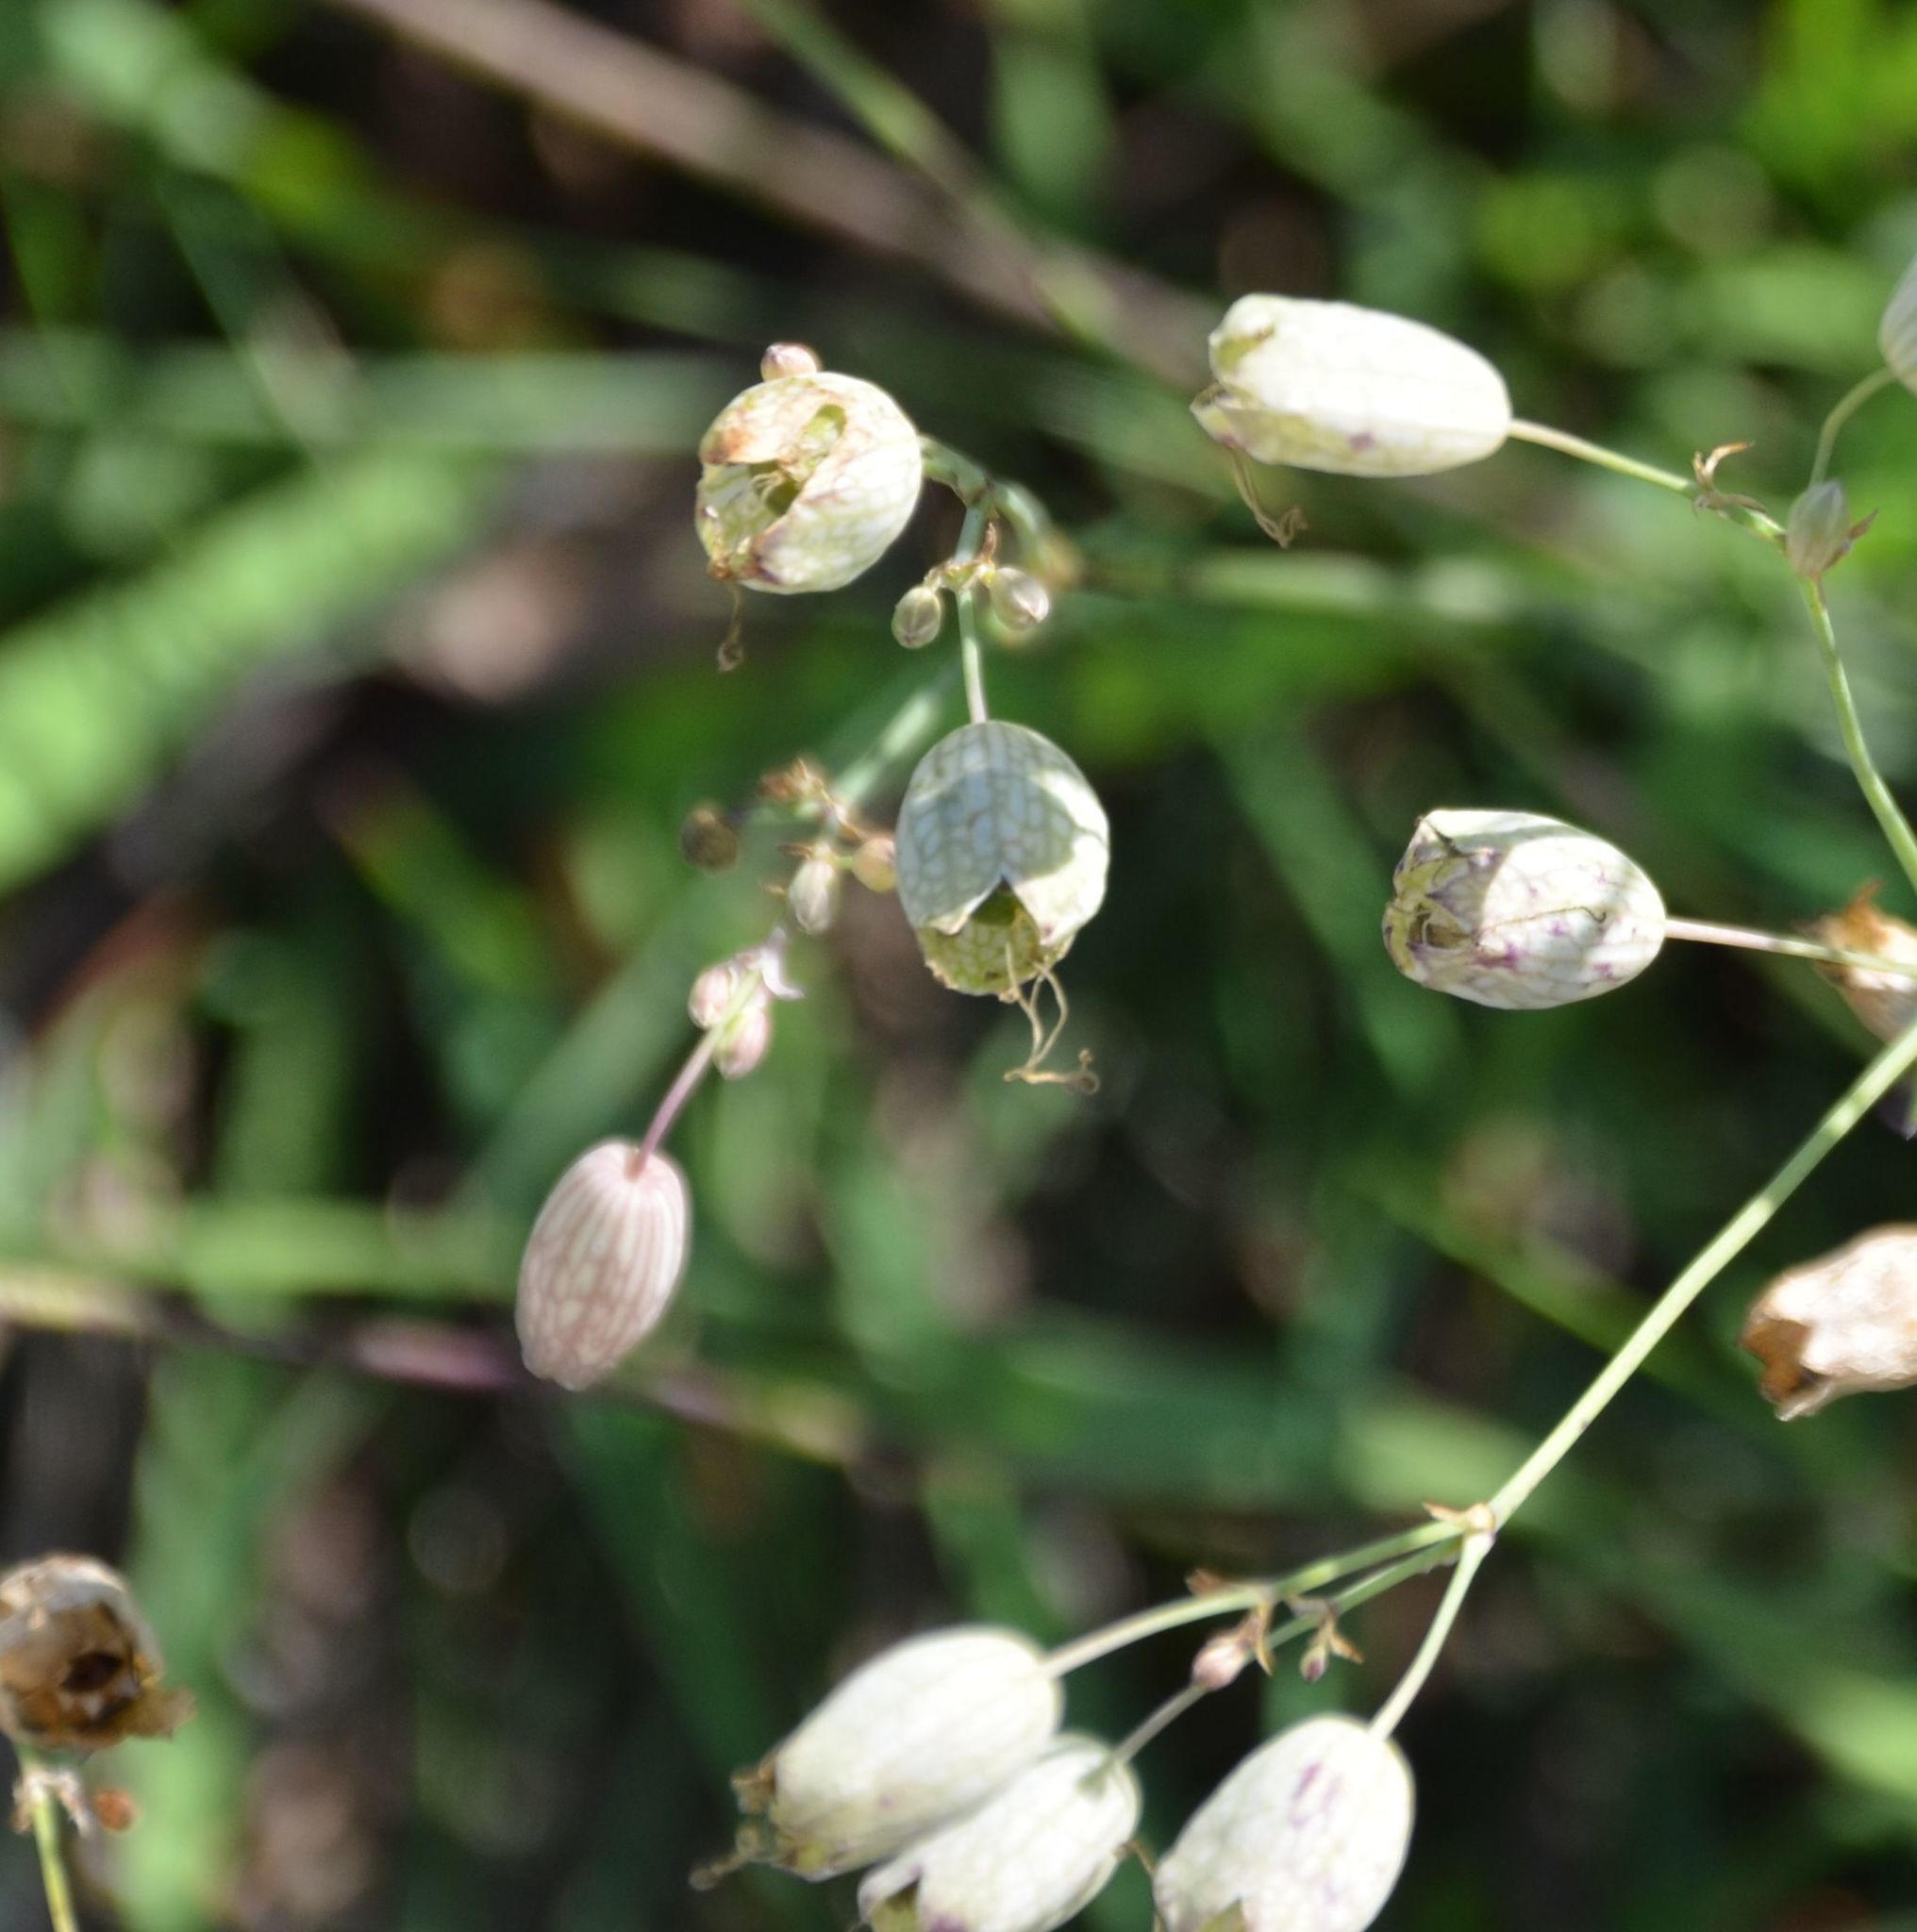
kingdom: Plantae
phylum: Tracheophyta
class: Magnoliopsida
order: Caryophyllales
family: Caryophyllaceae
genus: Silene
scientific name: Silene vulgaris
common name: Bladder campion
